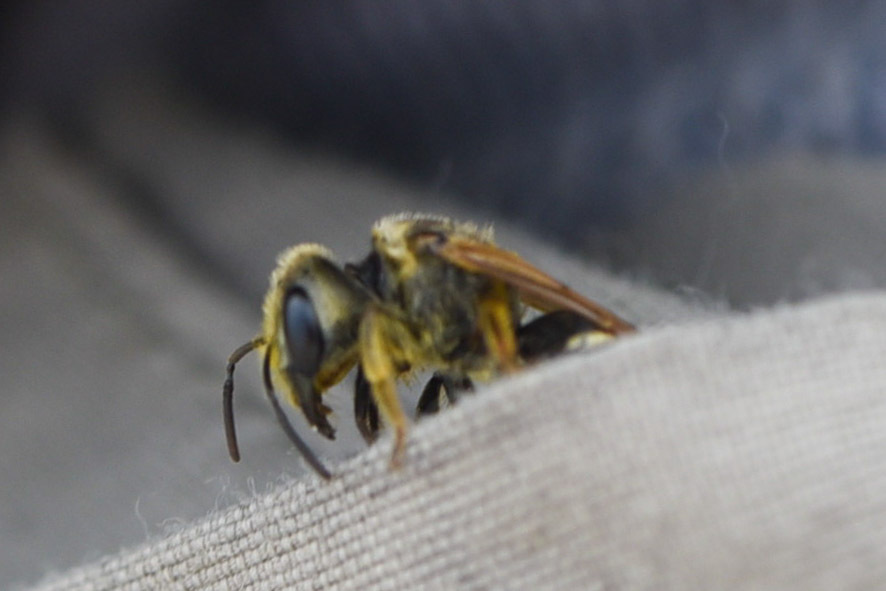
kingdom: Animalia
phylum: Arthropoda
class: Insecta
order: Hymenoptera
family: Halictidae
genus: Halictus
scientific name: Halictus ligatus
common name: Ligated furrow bee
